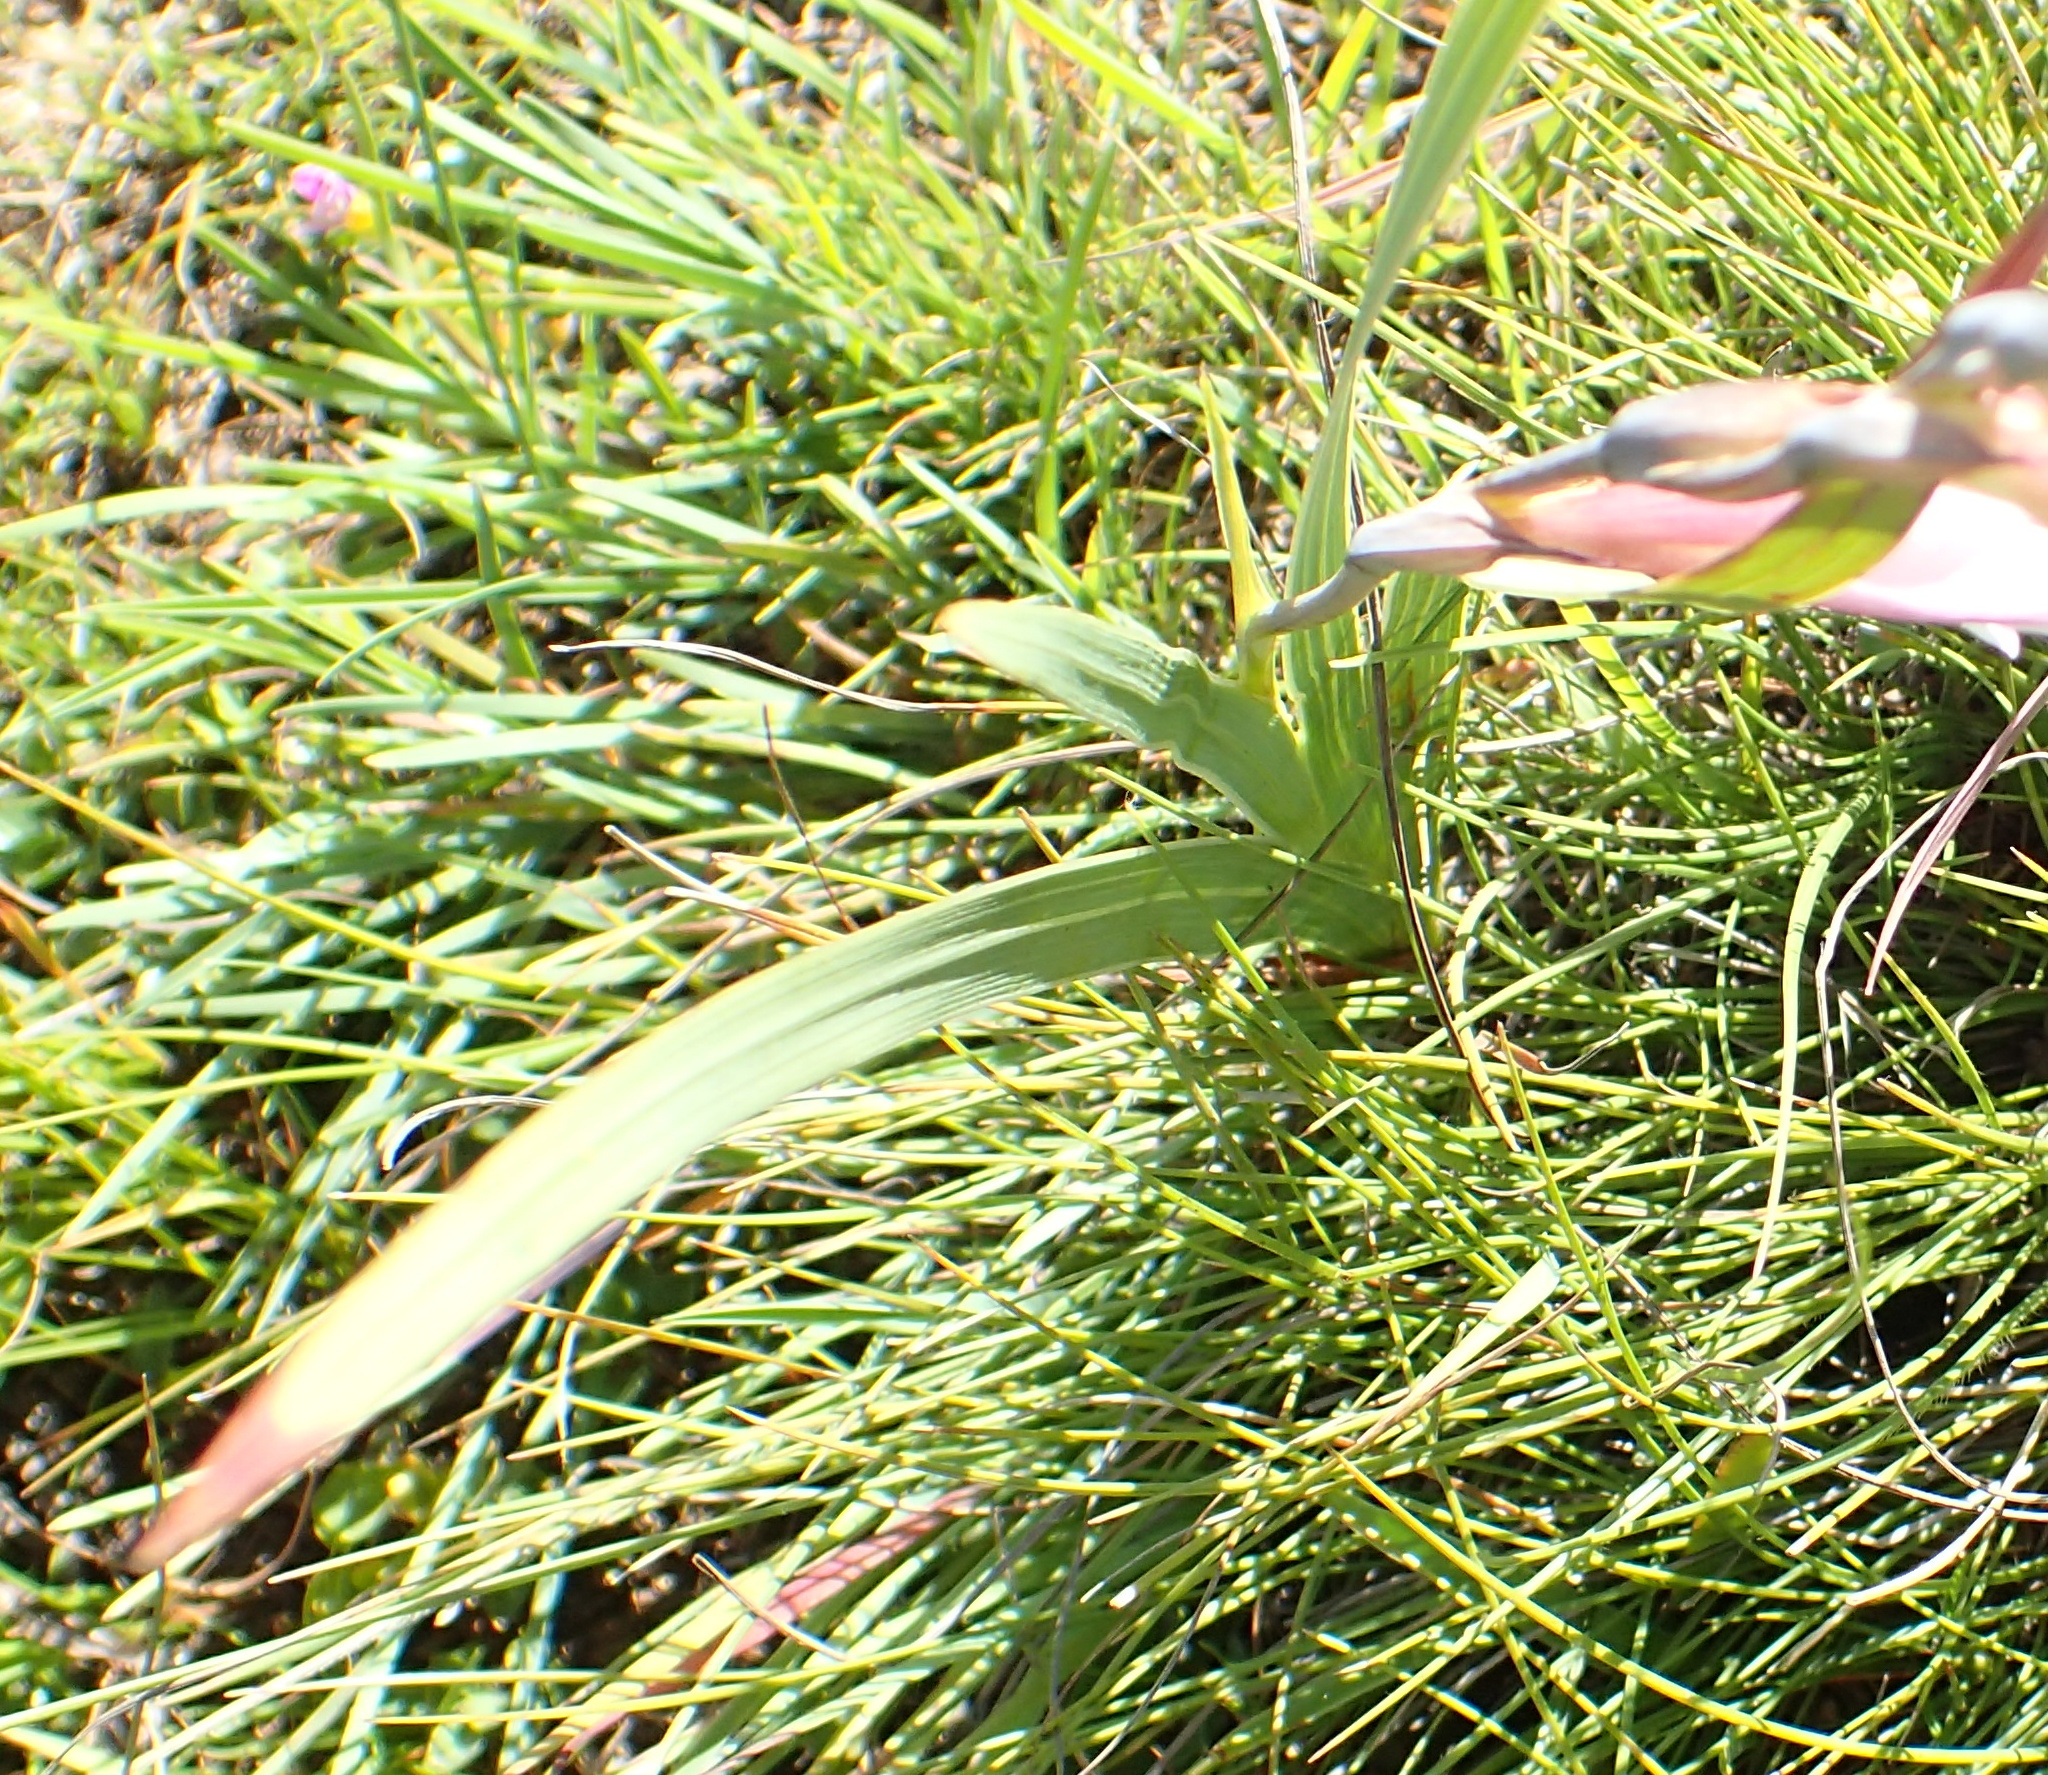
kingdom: Plantae
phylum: Tracheophyta
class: Liliopsida
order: Asparagales
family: Iridaceae
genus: Gladiolus
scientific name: Gladiolus crassifolius
